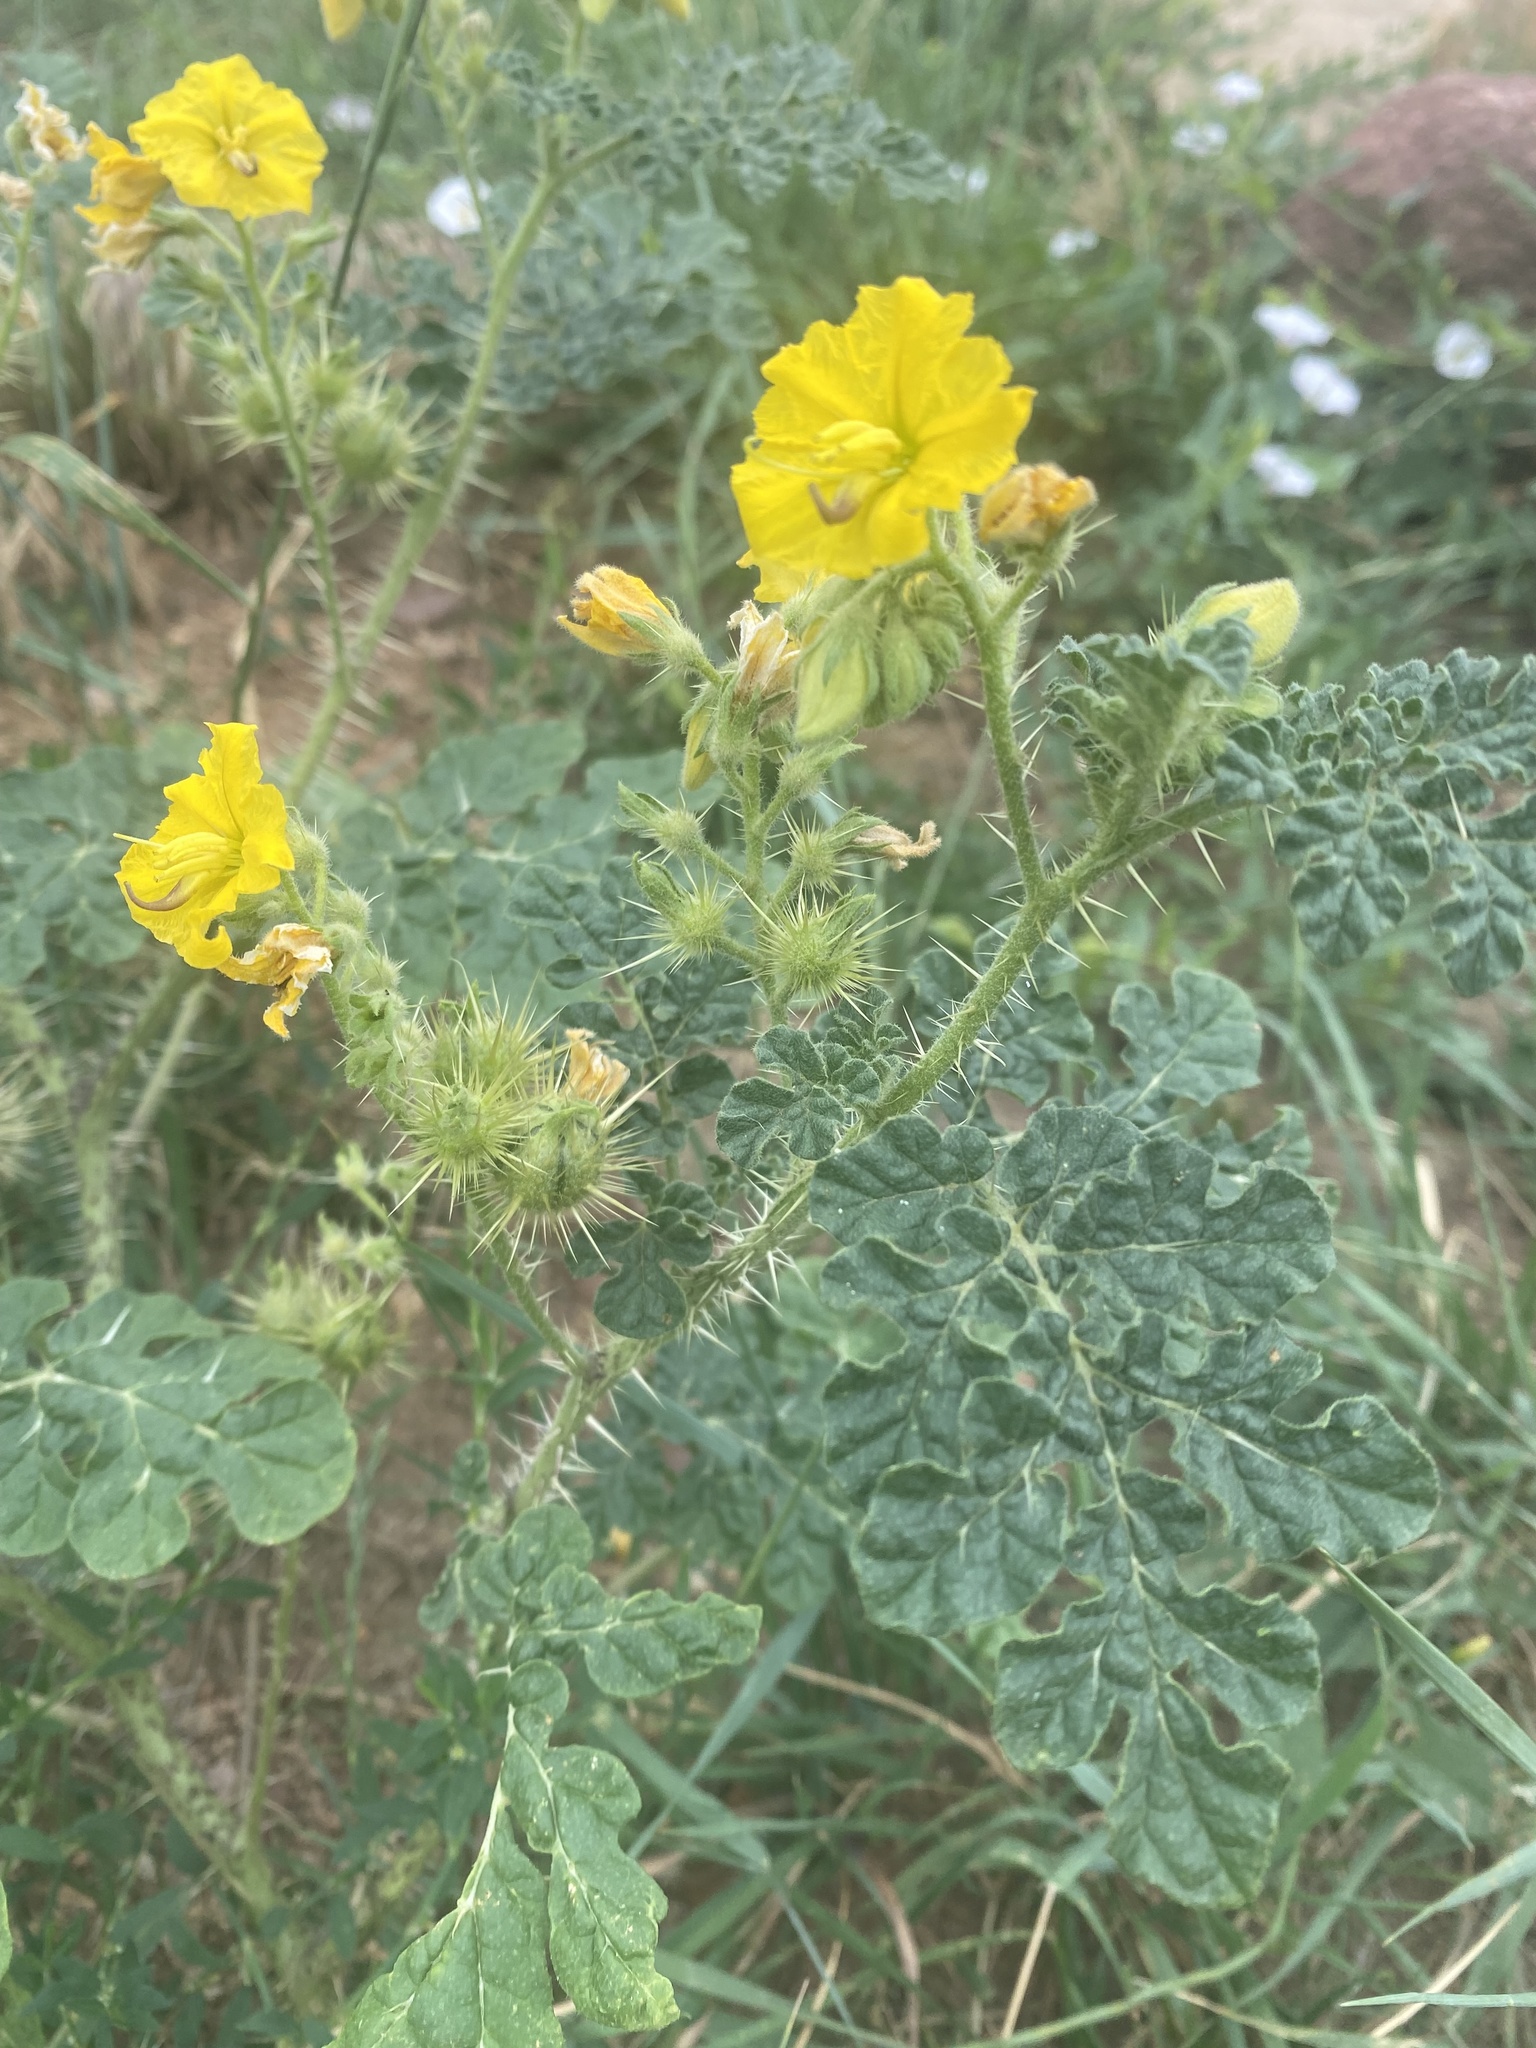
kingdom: Plantae
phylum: Tracheophyta
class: Magnoliopsida
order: Solanales
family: Solanaceae
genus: Solanum
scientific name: Solanum angustifolium
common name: Buffalobur nightshade
